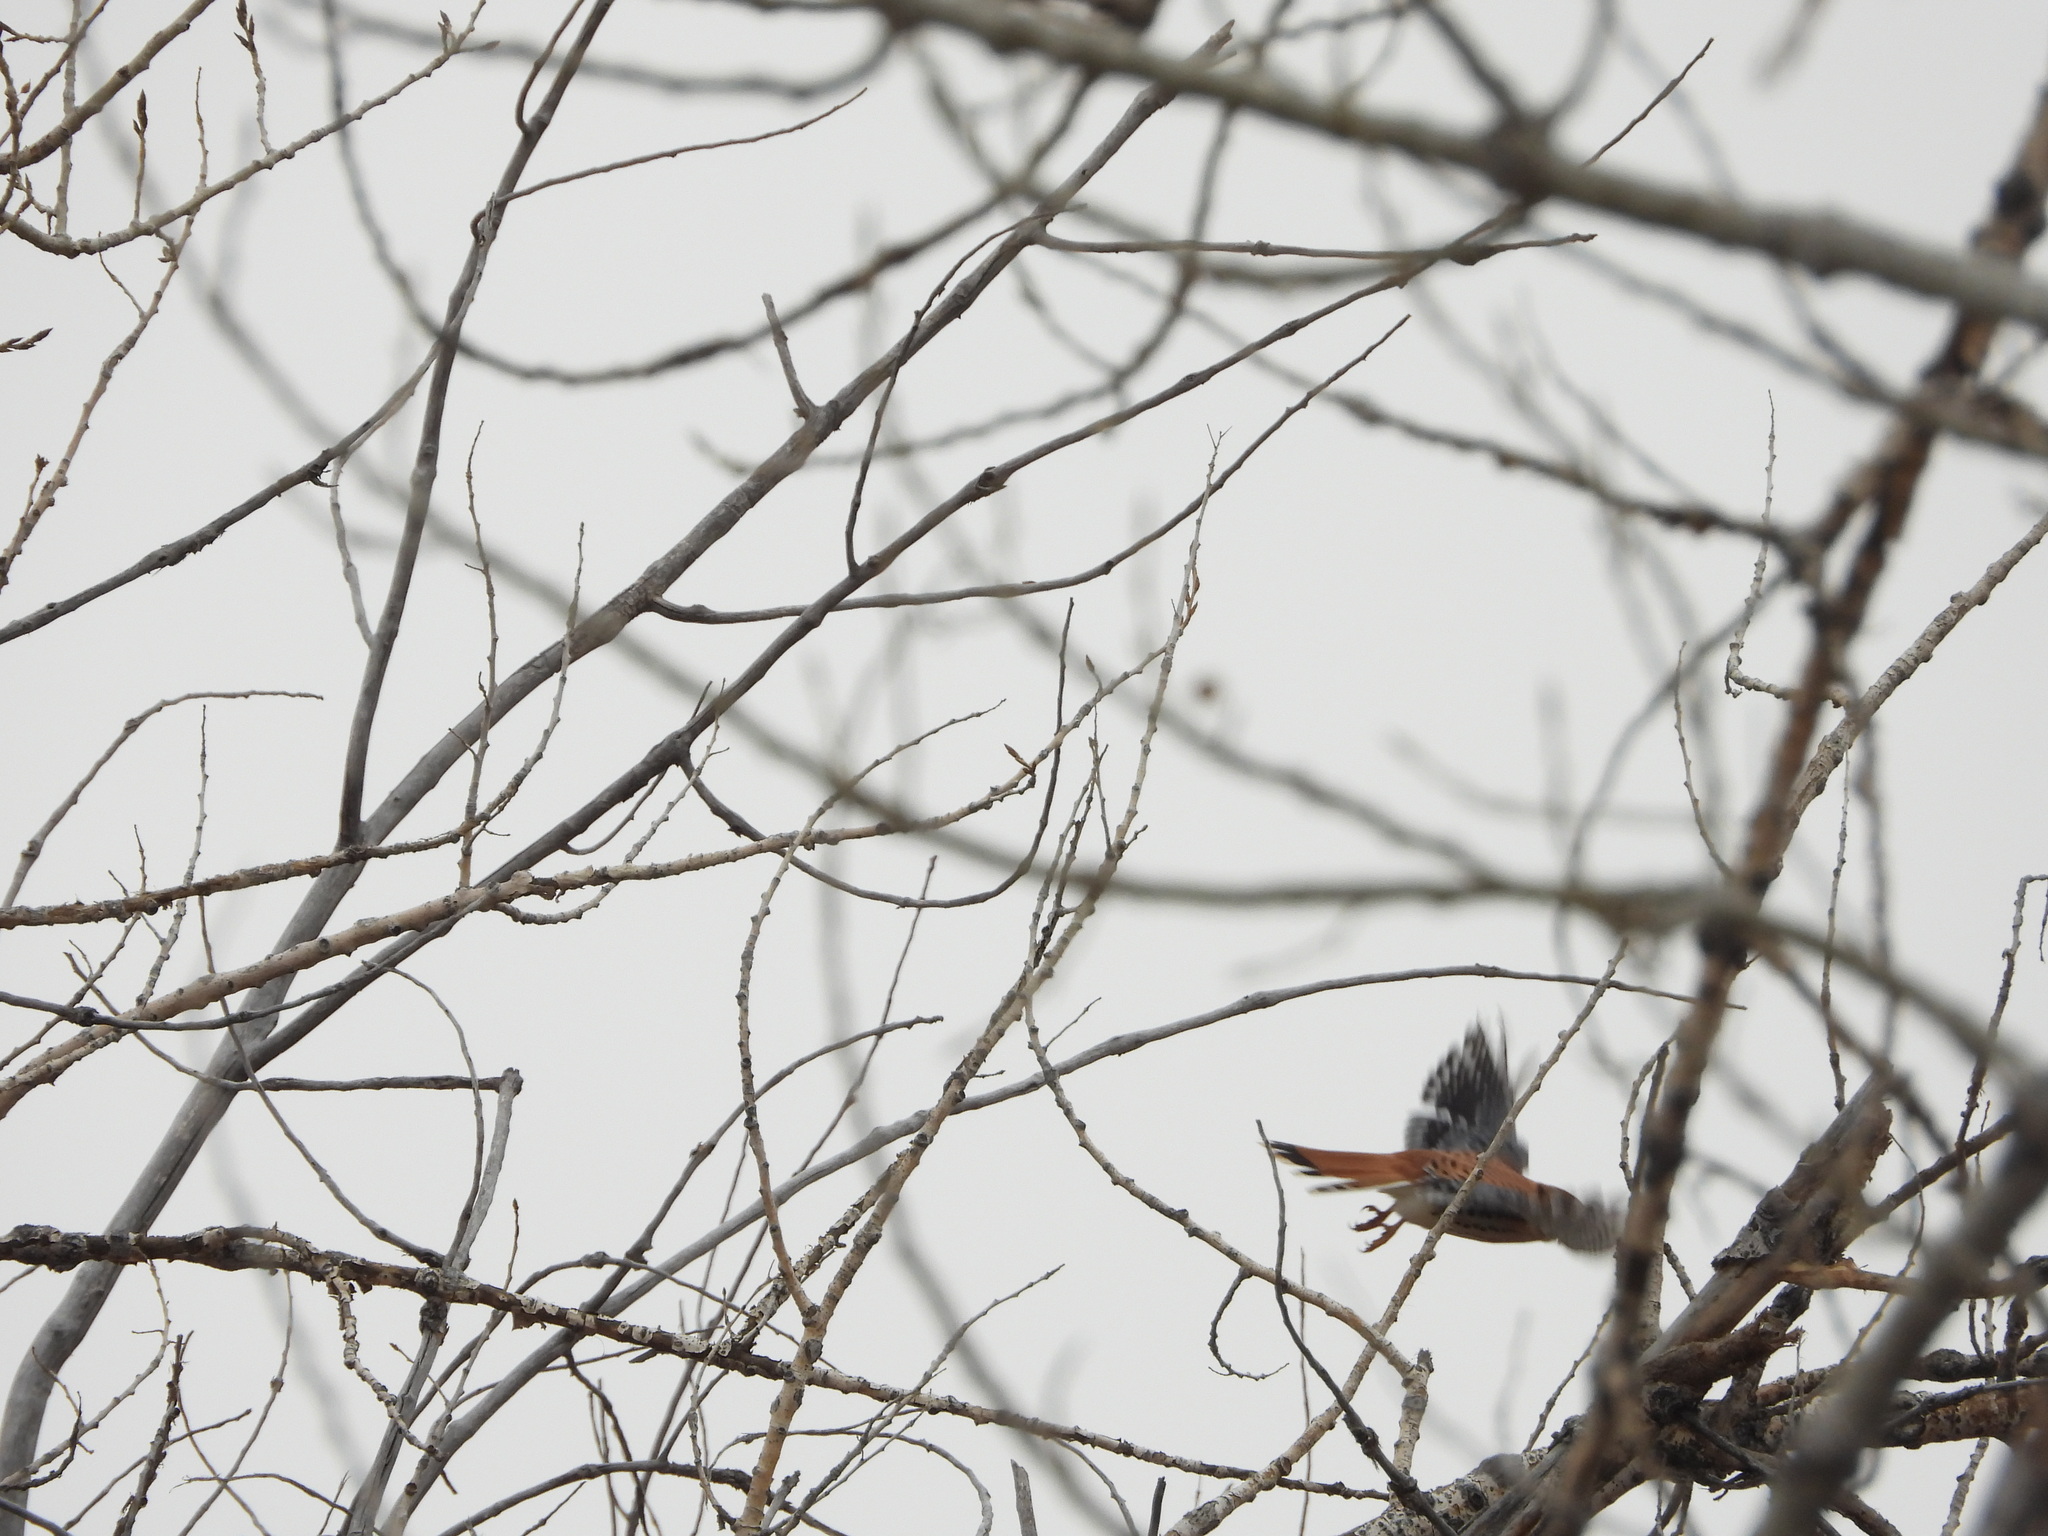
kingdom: Animalia
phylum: Chordata
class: Aves
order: Falconiformes
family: Falconidae
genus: Falco
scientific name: Falco sparverius
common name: American kestrel
